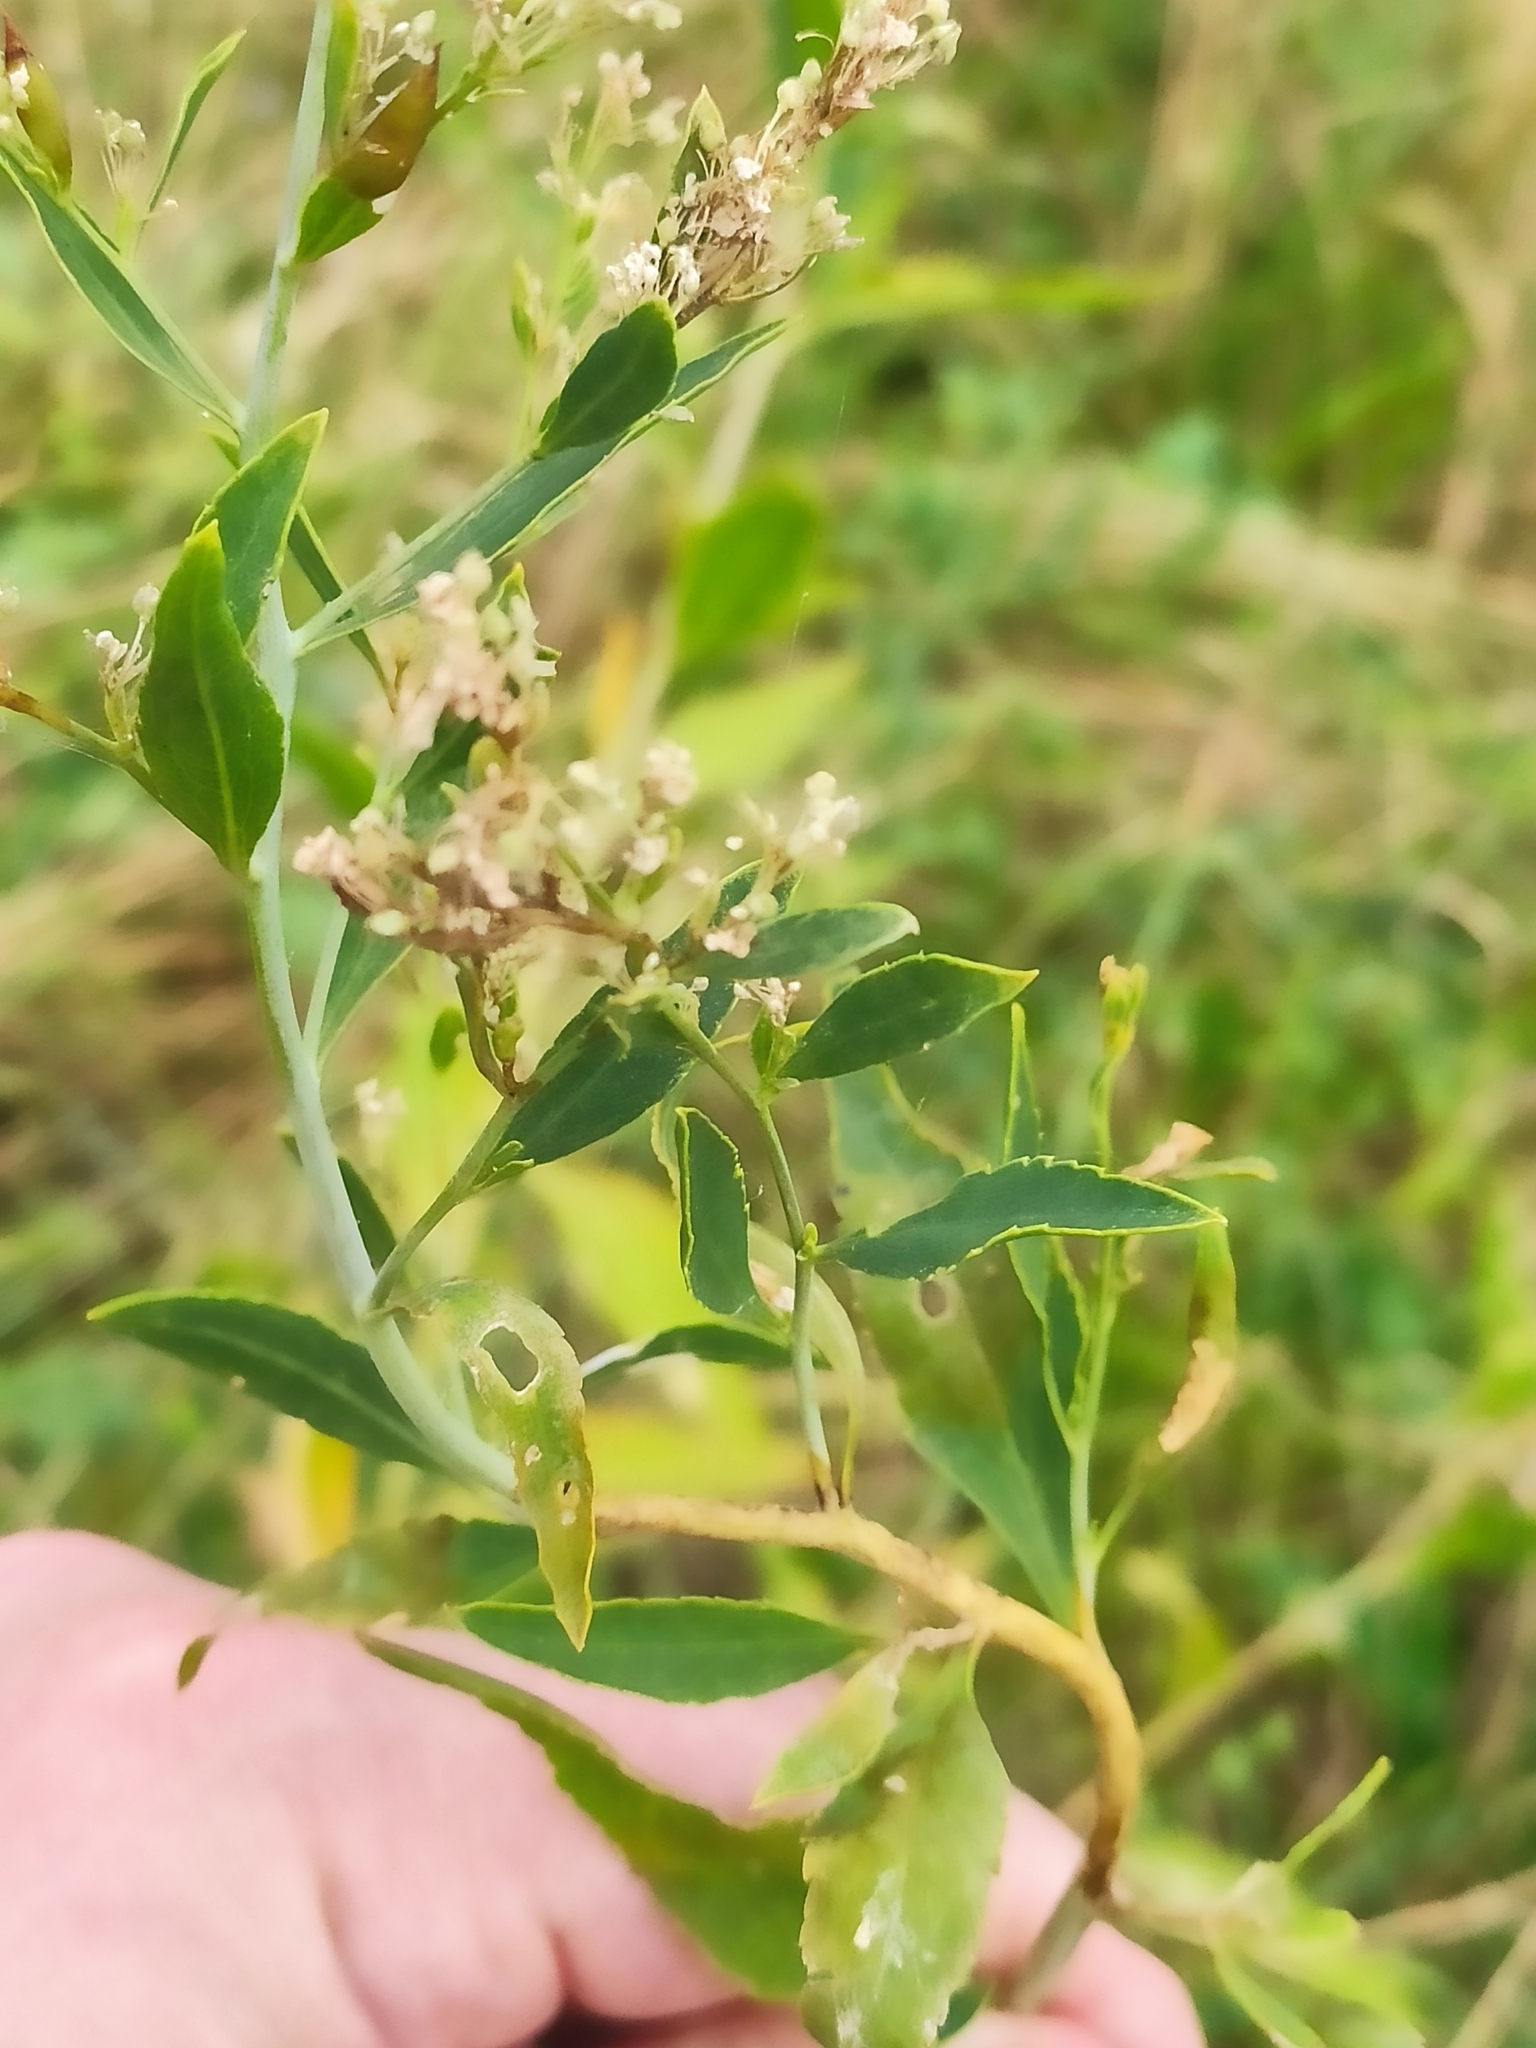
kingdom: Plantae
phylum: Tracheophyta
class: Magnoliopsida
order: Brassicales
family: Brassicaceae
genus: Lepidium
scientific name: Lepidium latifolium
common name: Dittander
